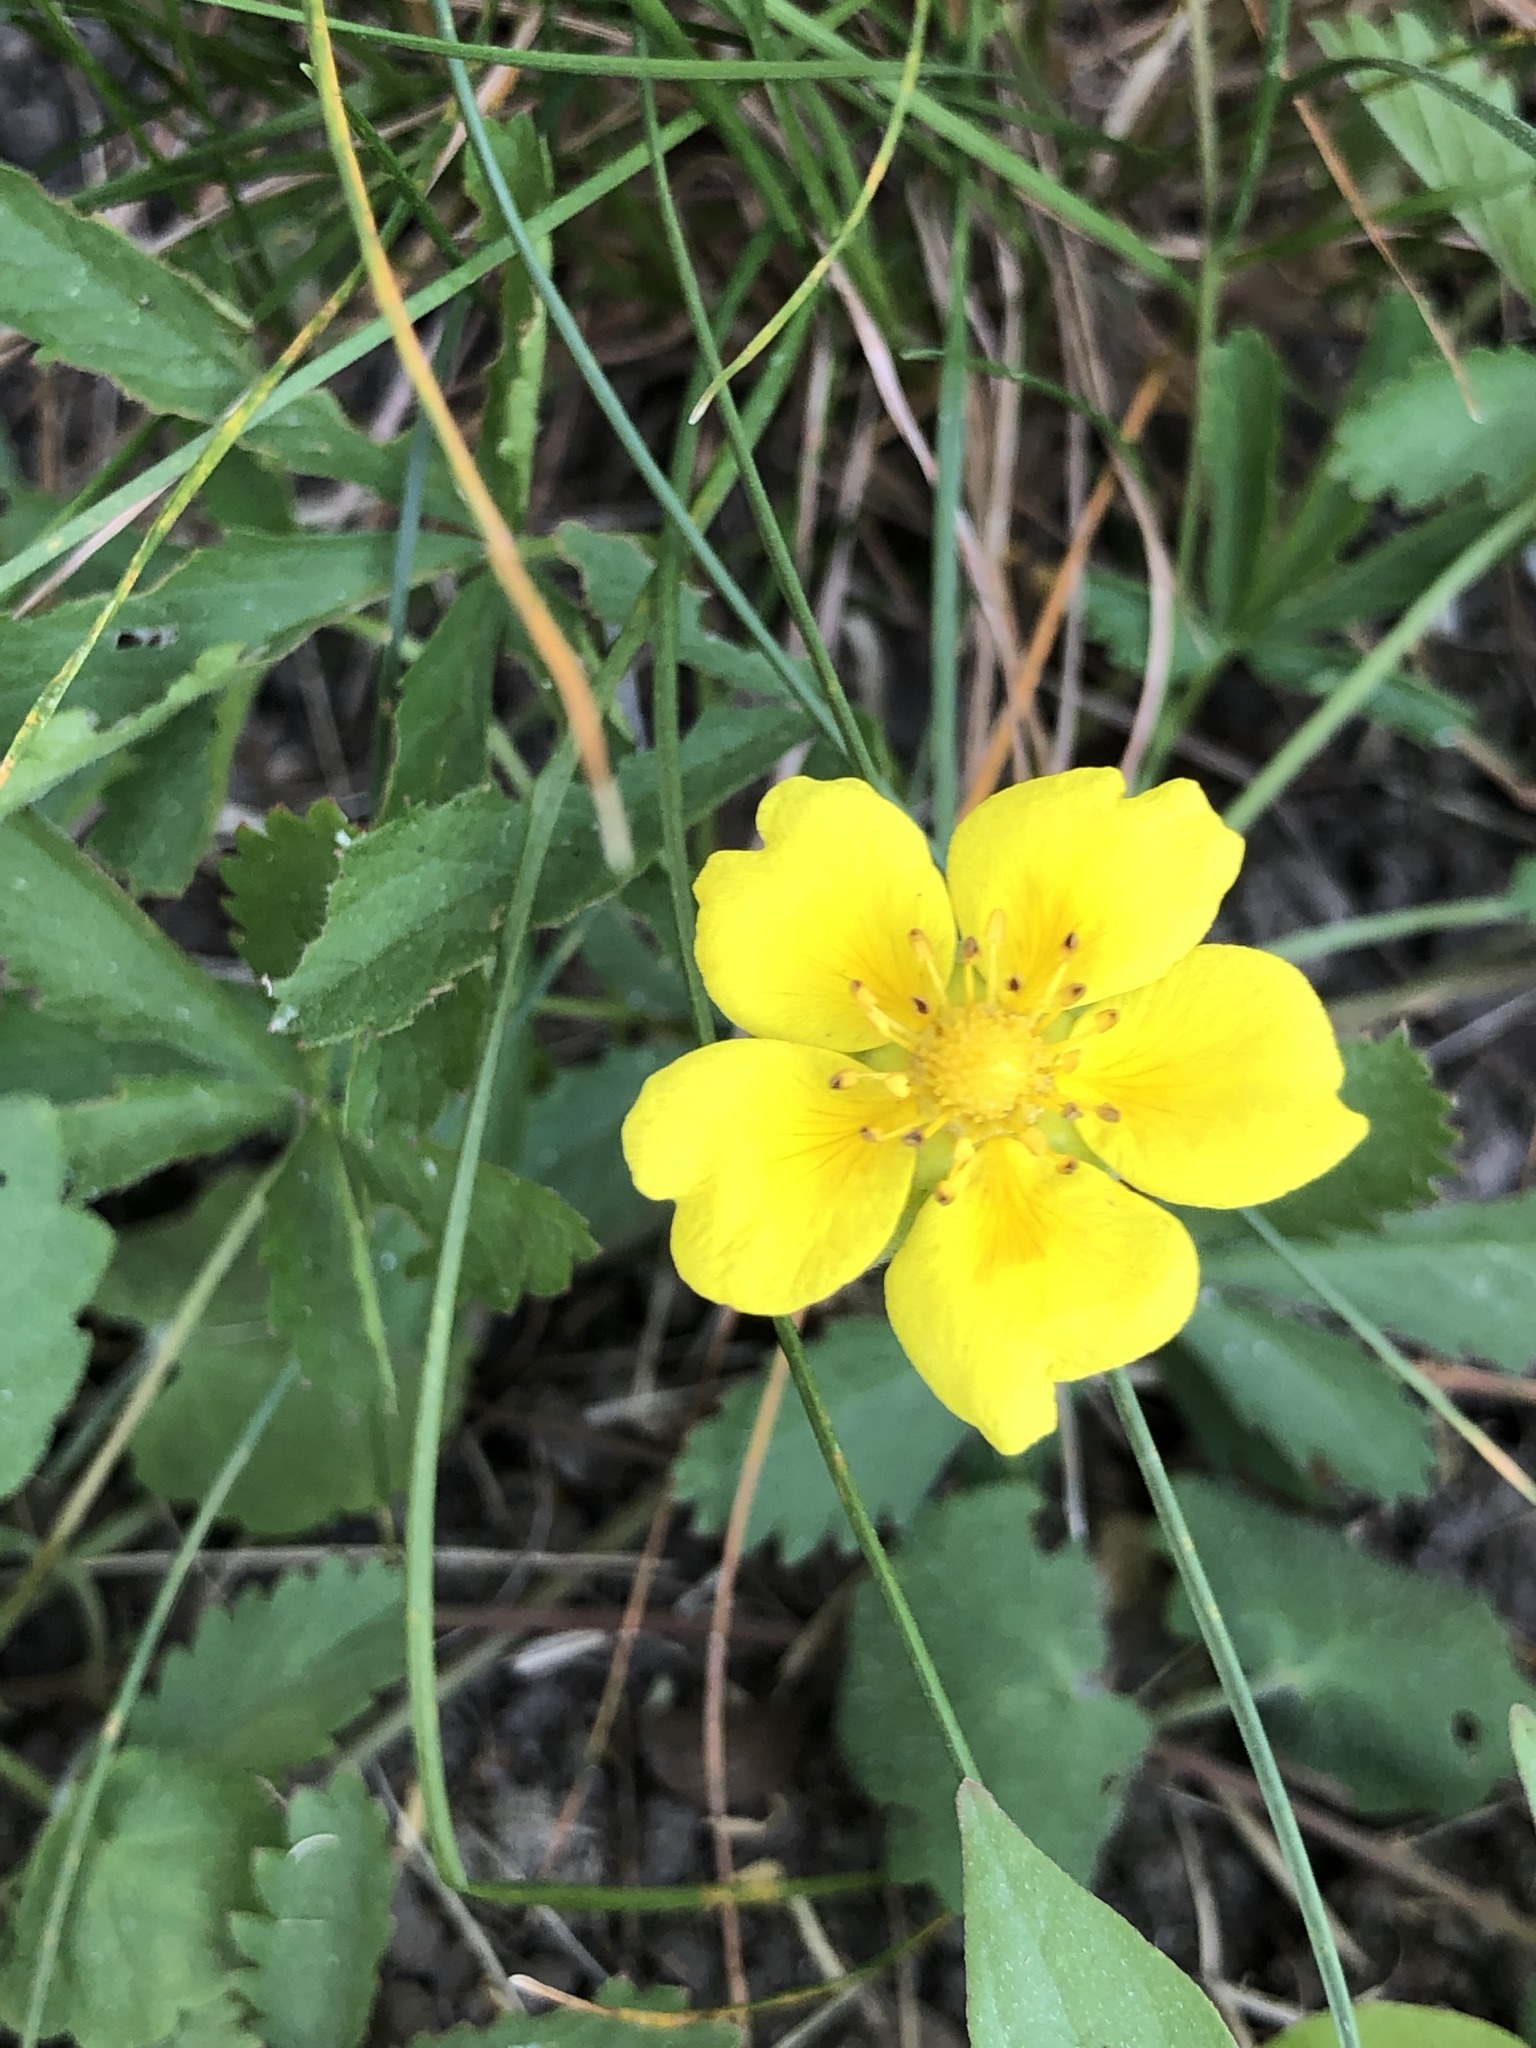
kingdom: Plantae
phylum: Tracheophyta
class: Magnoliopsida
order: Rosales
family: Rosaceae
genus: Potentilla
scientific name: Potentilla reptans
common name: Creeping cinquefoil
